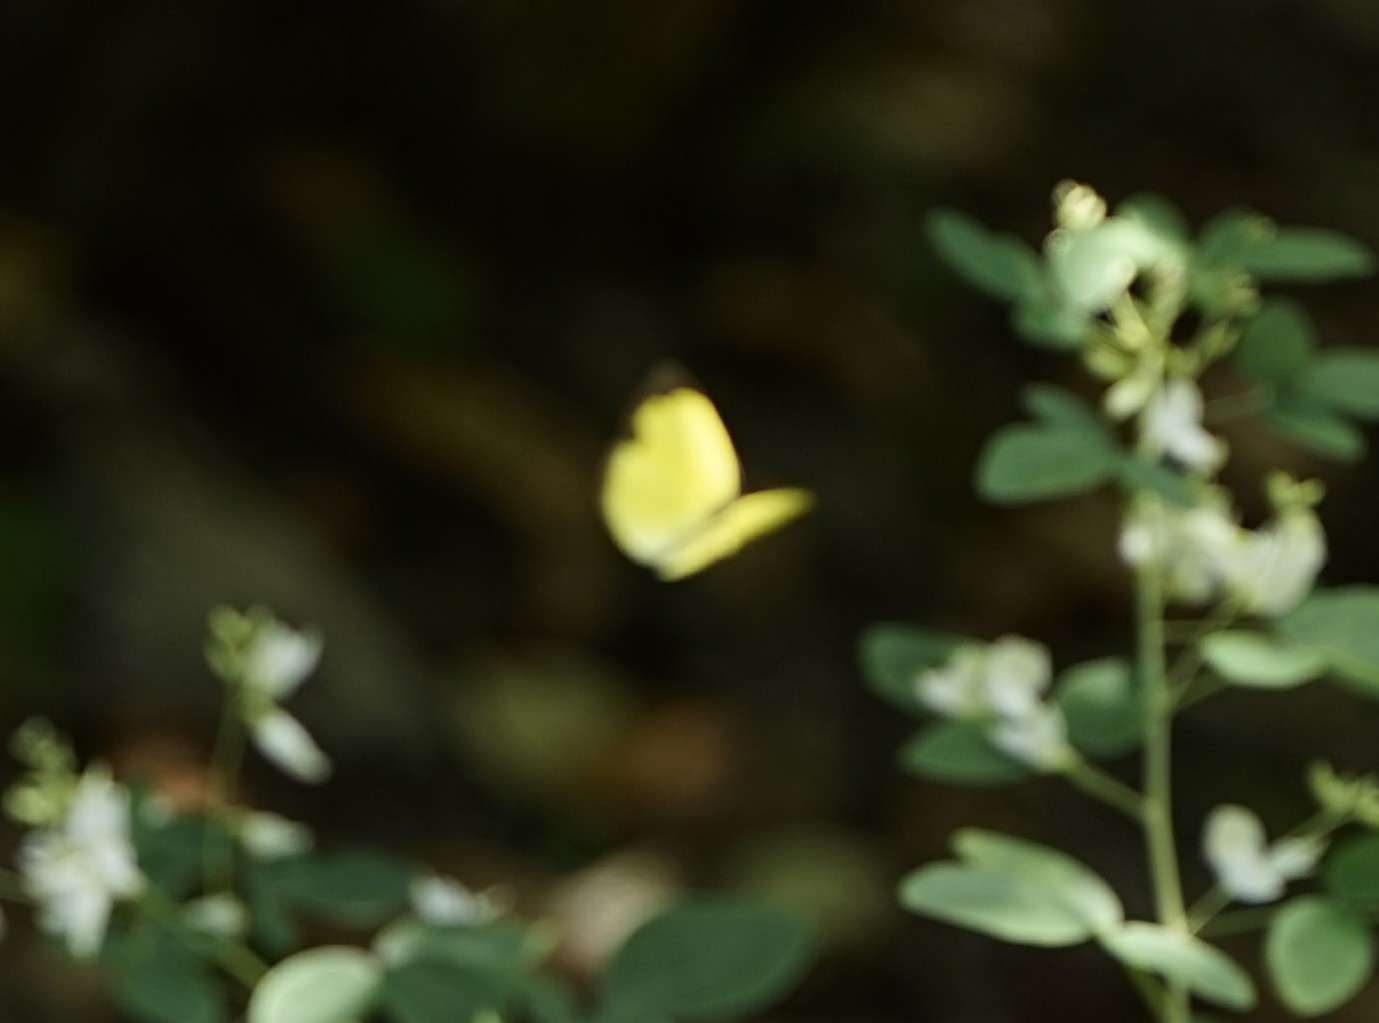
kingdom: Animalia
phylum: Arthropoda
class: Insecta
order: Lepidoptera
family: Pieridae
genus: Eurema
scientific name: Eurema mandarina
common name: Japanese common grass yellow
